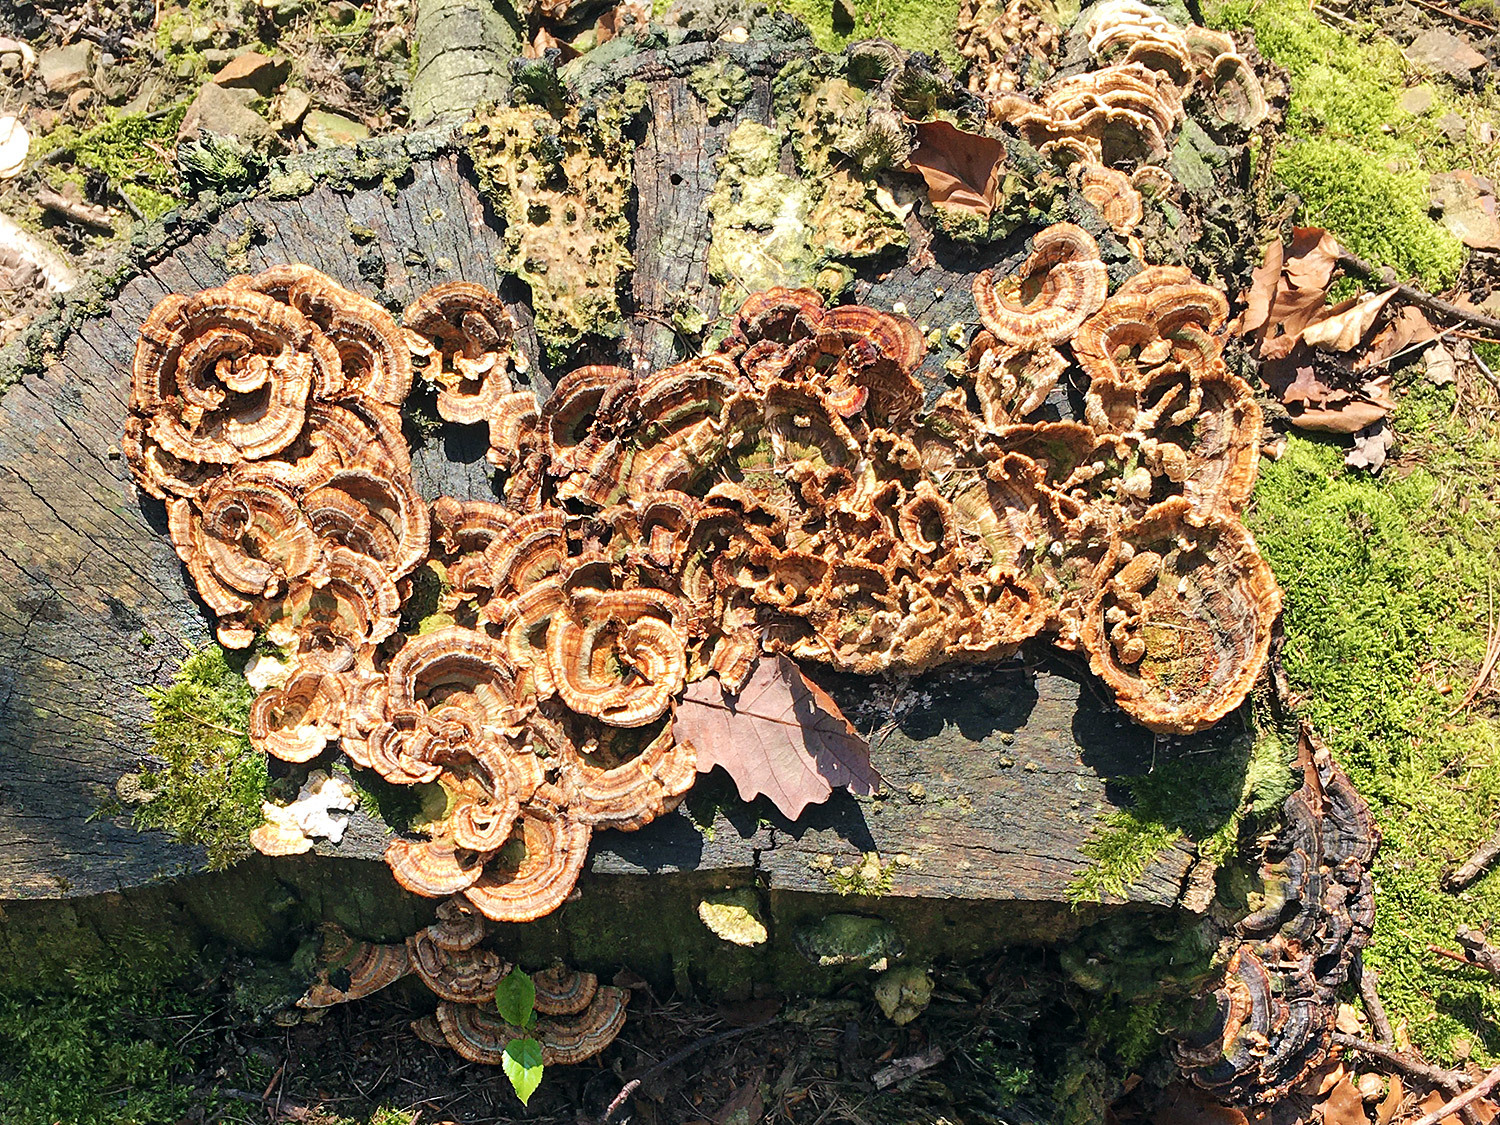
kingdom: Fungi
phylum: Basidiomycota
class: Agaricomycetes
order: Polyporales
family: Polyporaceae
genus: Trametes
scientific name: Trametes versicolor
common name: Turkeytail
